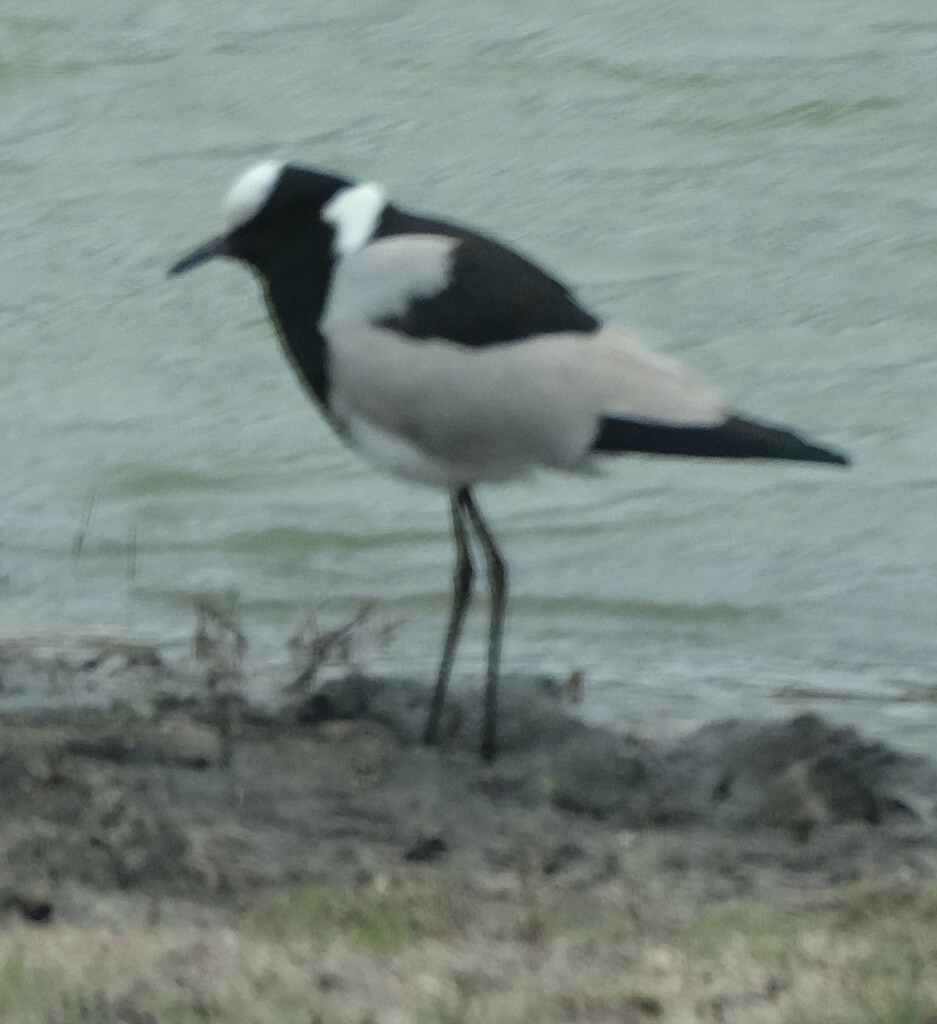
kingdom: Animalia
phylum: Chordata
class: Aves
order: Charadriiformes
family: Charadriidae
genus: Vanellus
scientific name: Vanellus armatus
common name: Blacksmith lapwing
